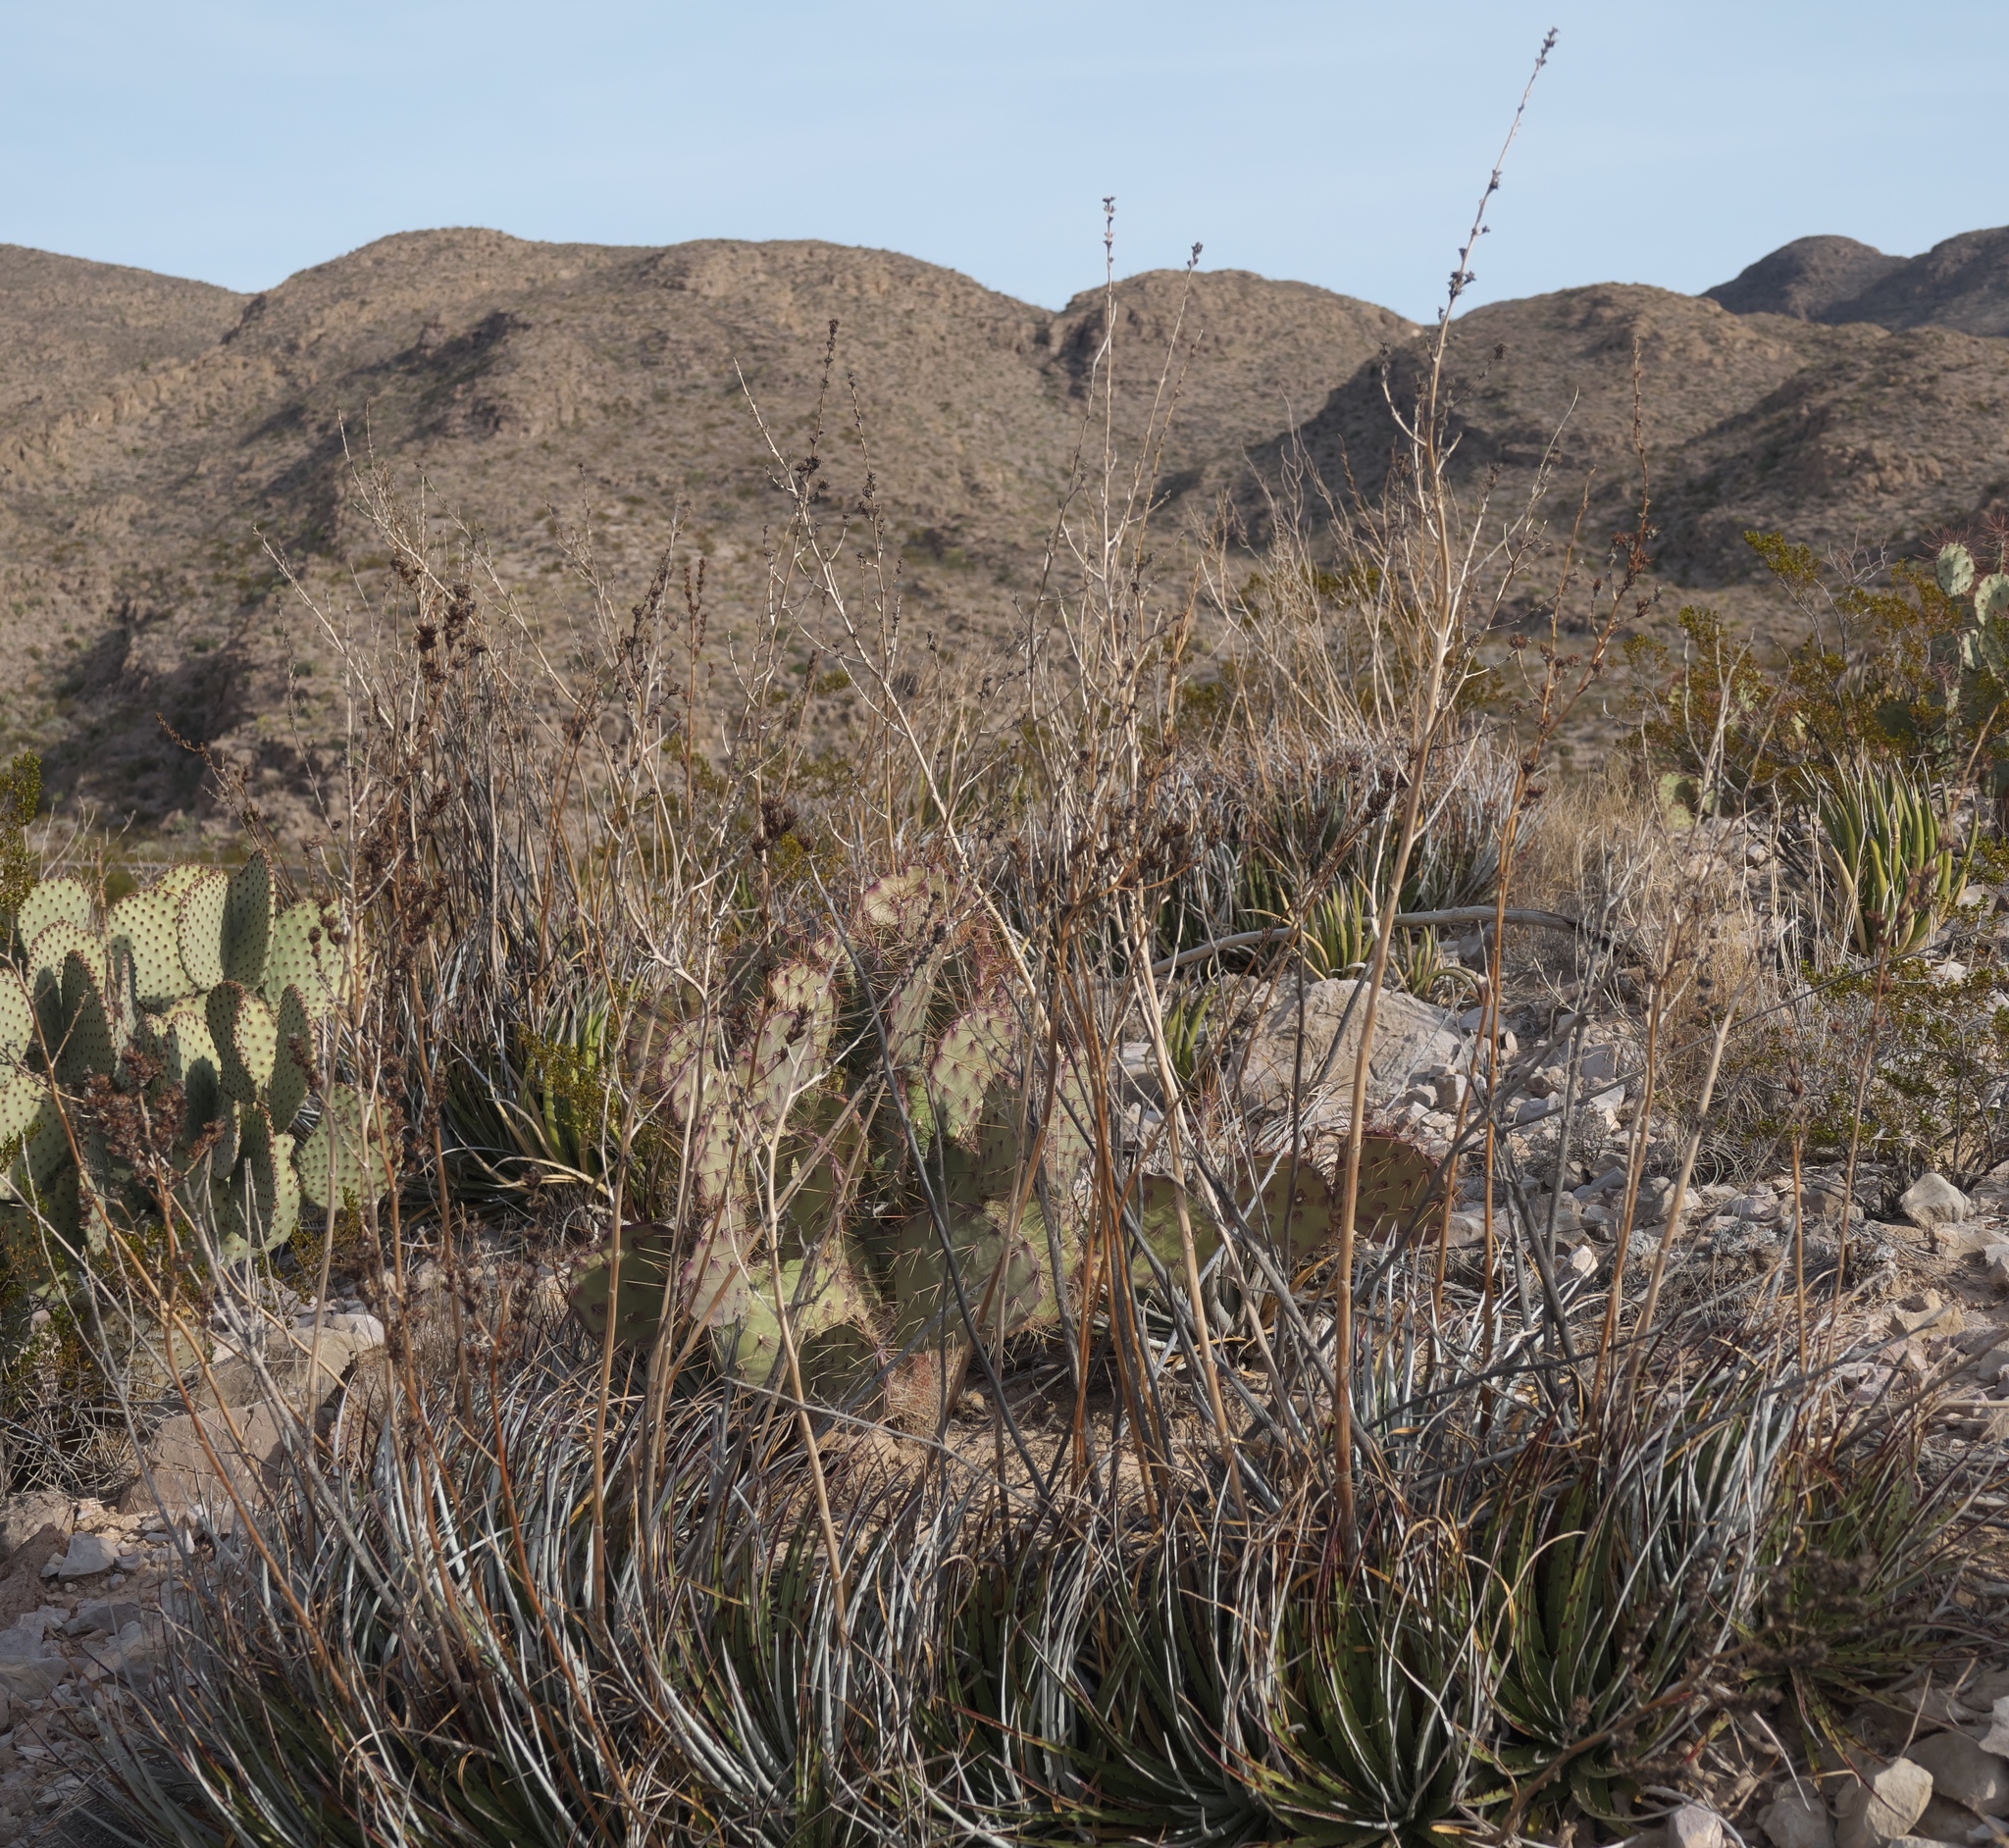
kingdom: Plantae
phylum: Tracheophyta
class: Liliopsida
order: Poales
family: Bromeliaceae
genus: Hechtia
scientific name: Hechtia texensis
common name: False agave
